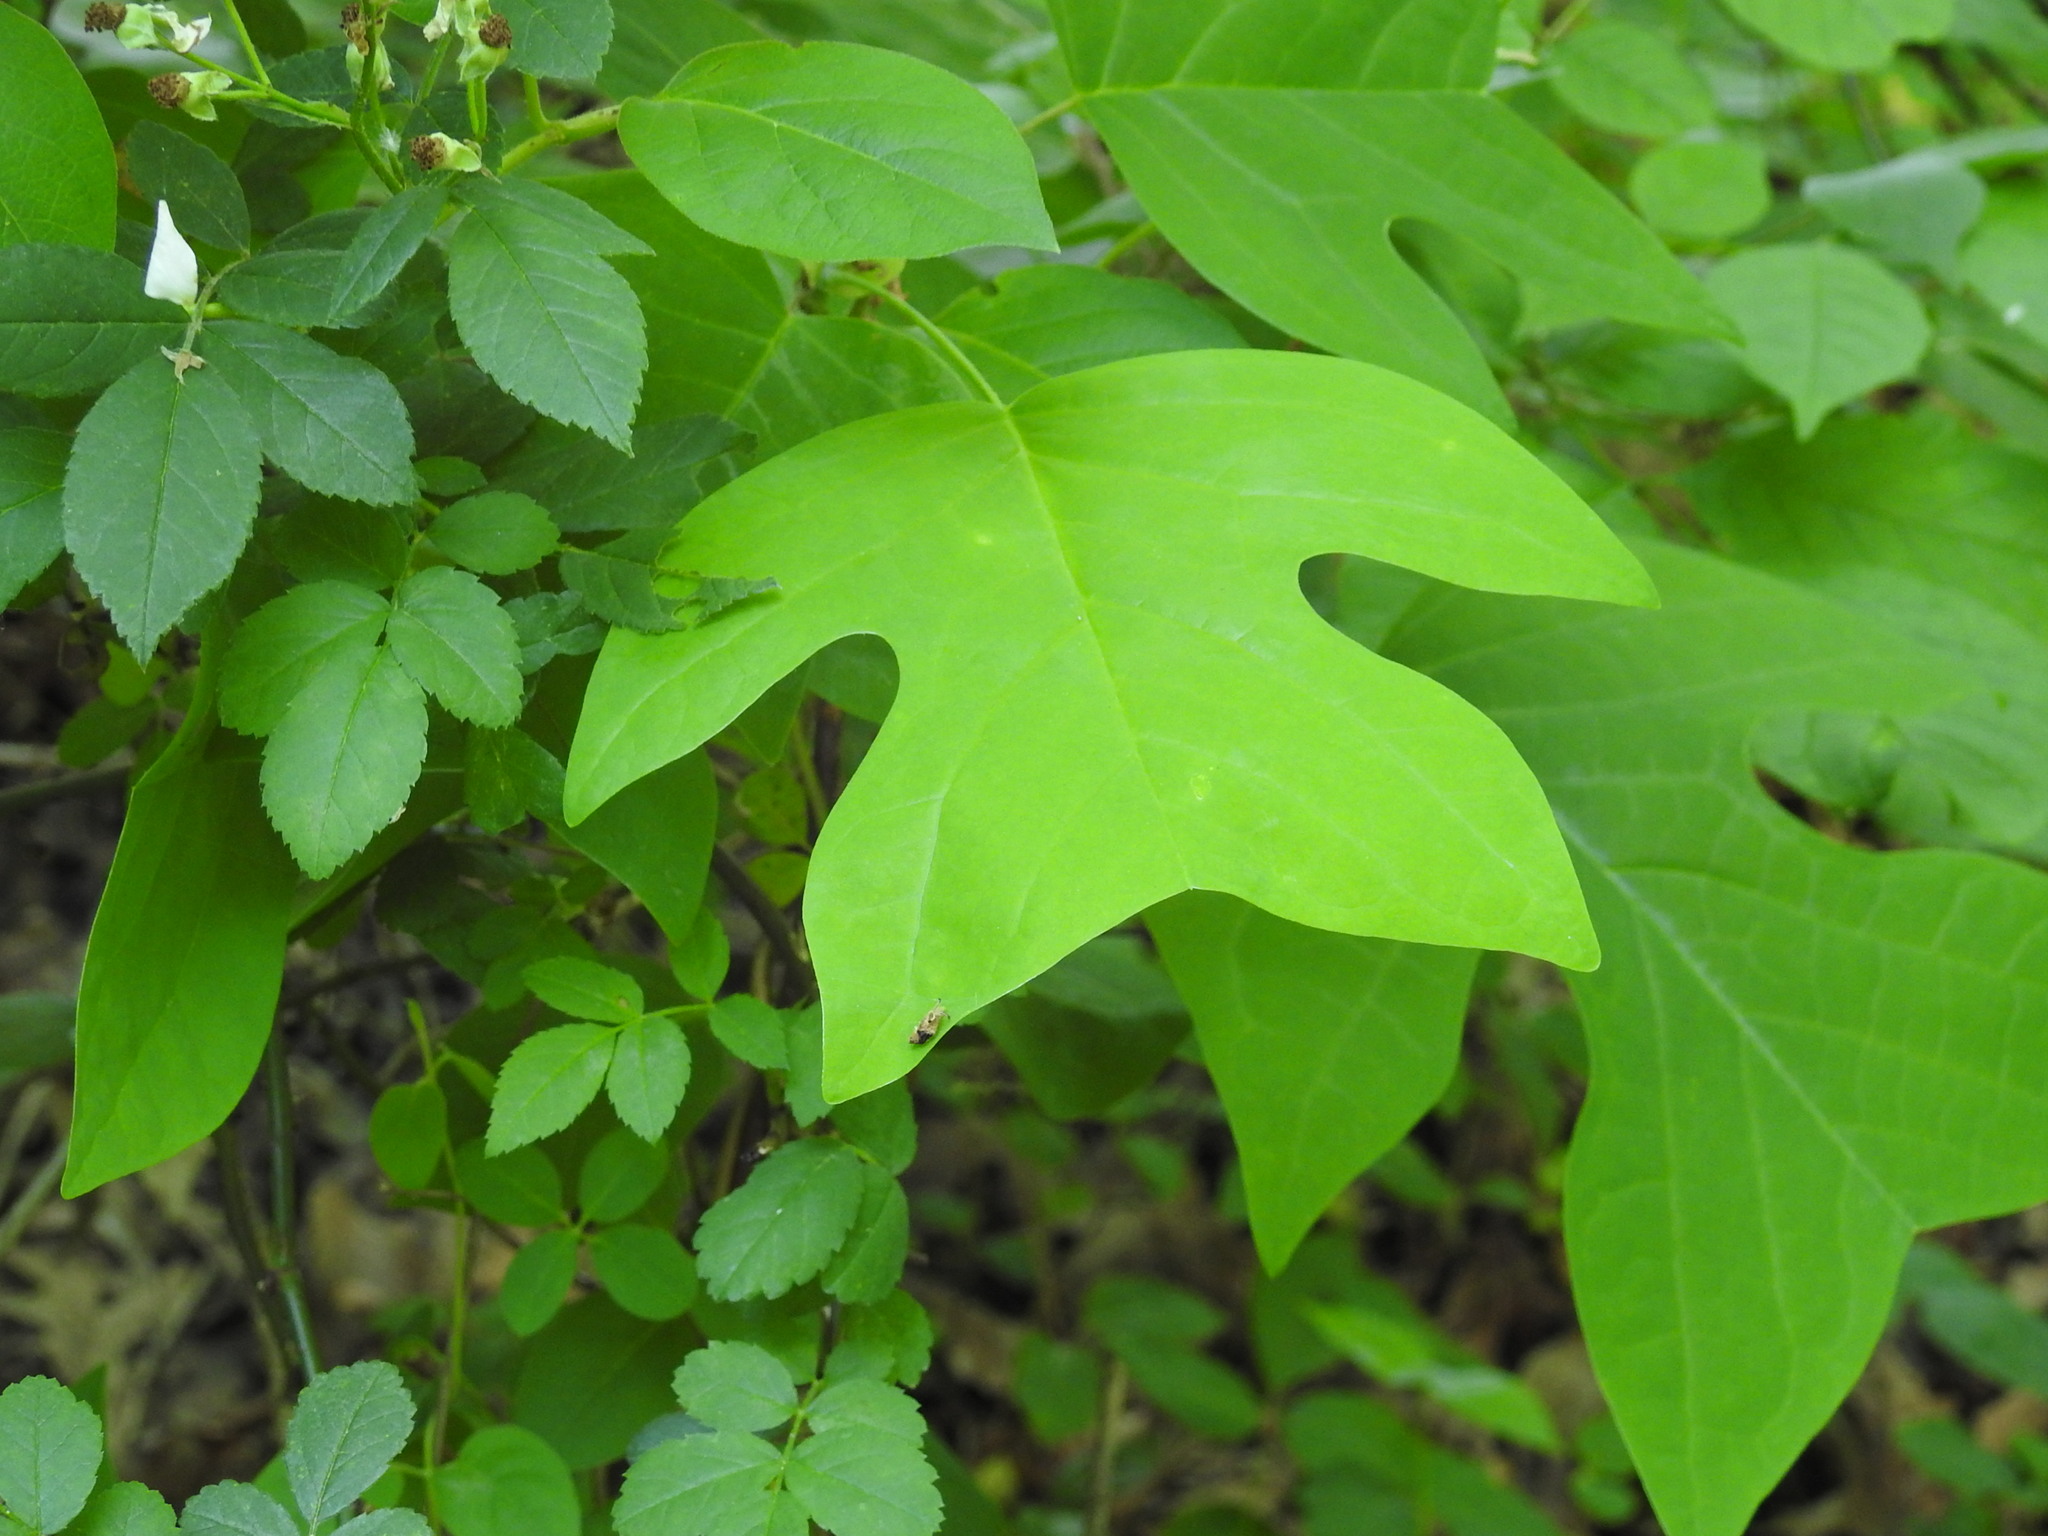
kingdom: Plantae
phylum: Tracheophyta
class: Magnoliopsida
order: Magnoliales
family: Magnoliaceae
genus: Liriodendron
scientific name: Liriodendron tulipifera
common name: Tulip tree
